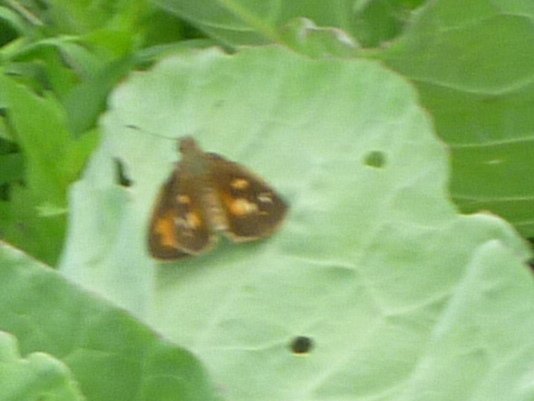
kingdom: Animalia
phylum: Arthropoda
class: Insecta
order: Lepidoptera
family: Hesperiidae
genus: Poanes
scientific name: Poanes viator
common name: Broad-winged skipper
